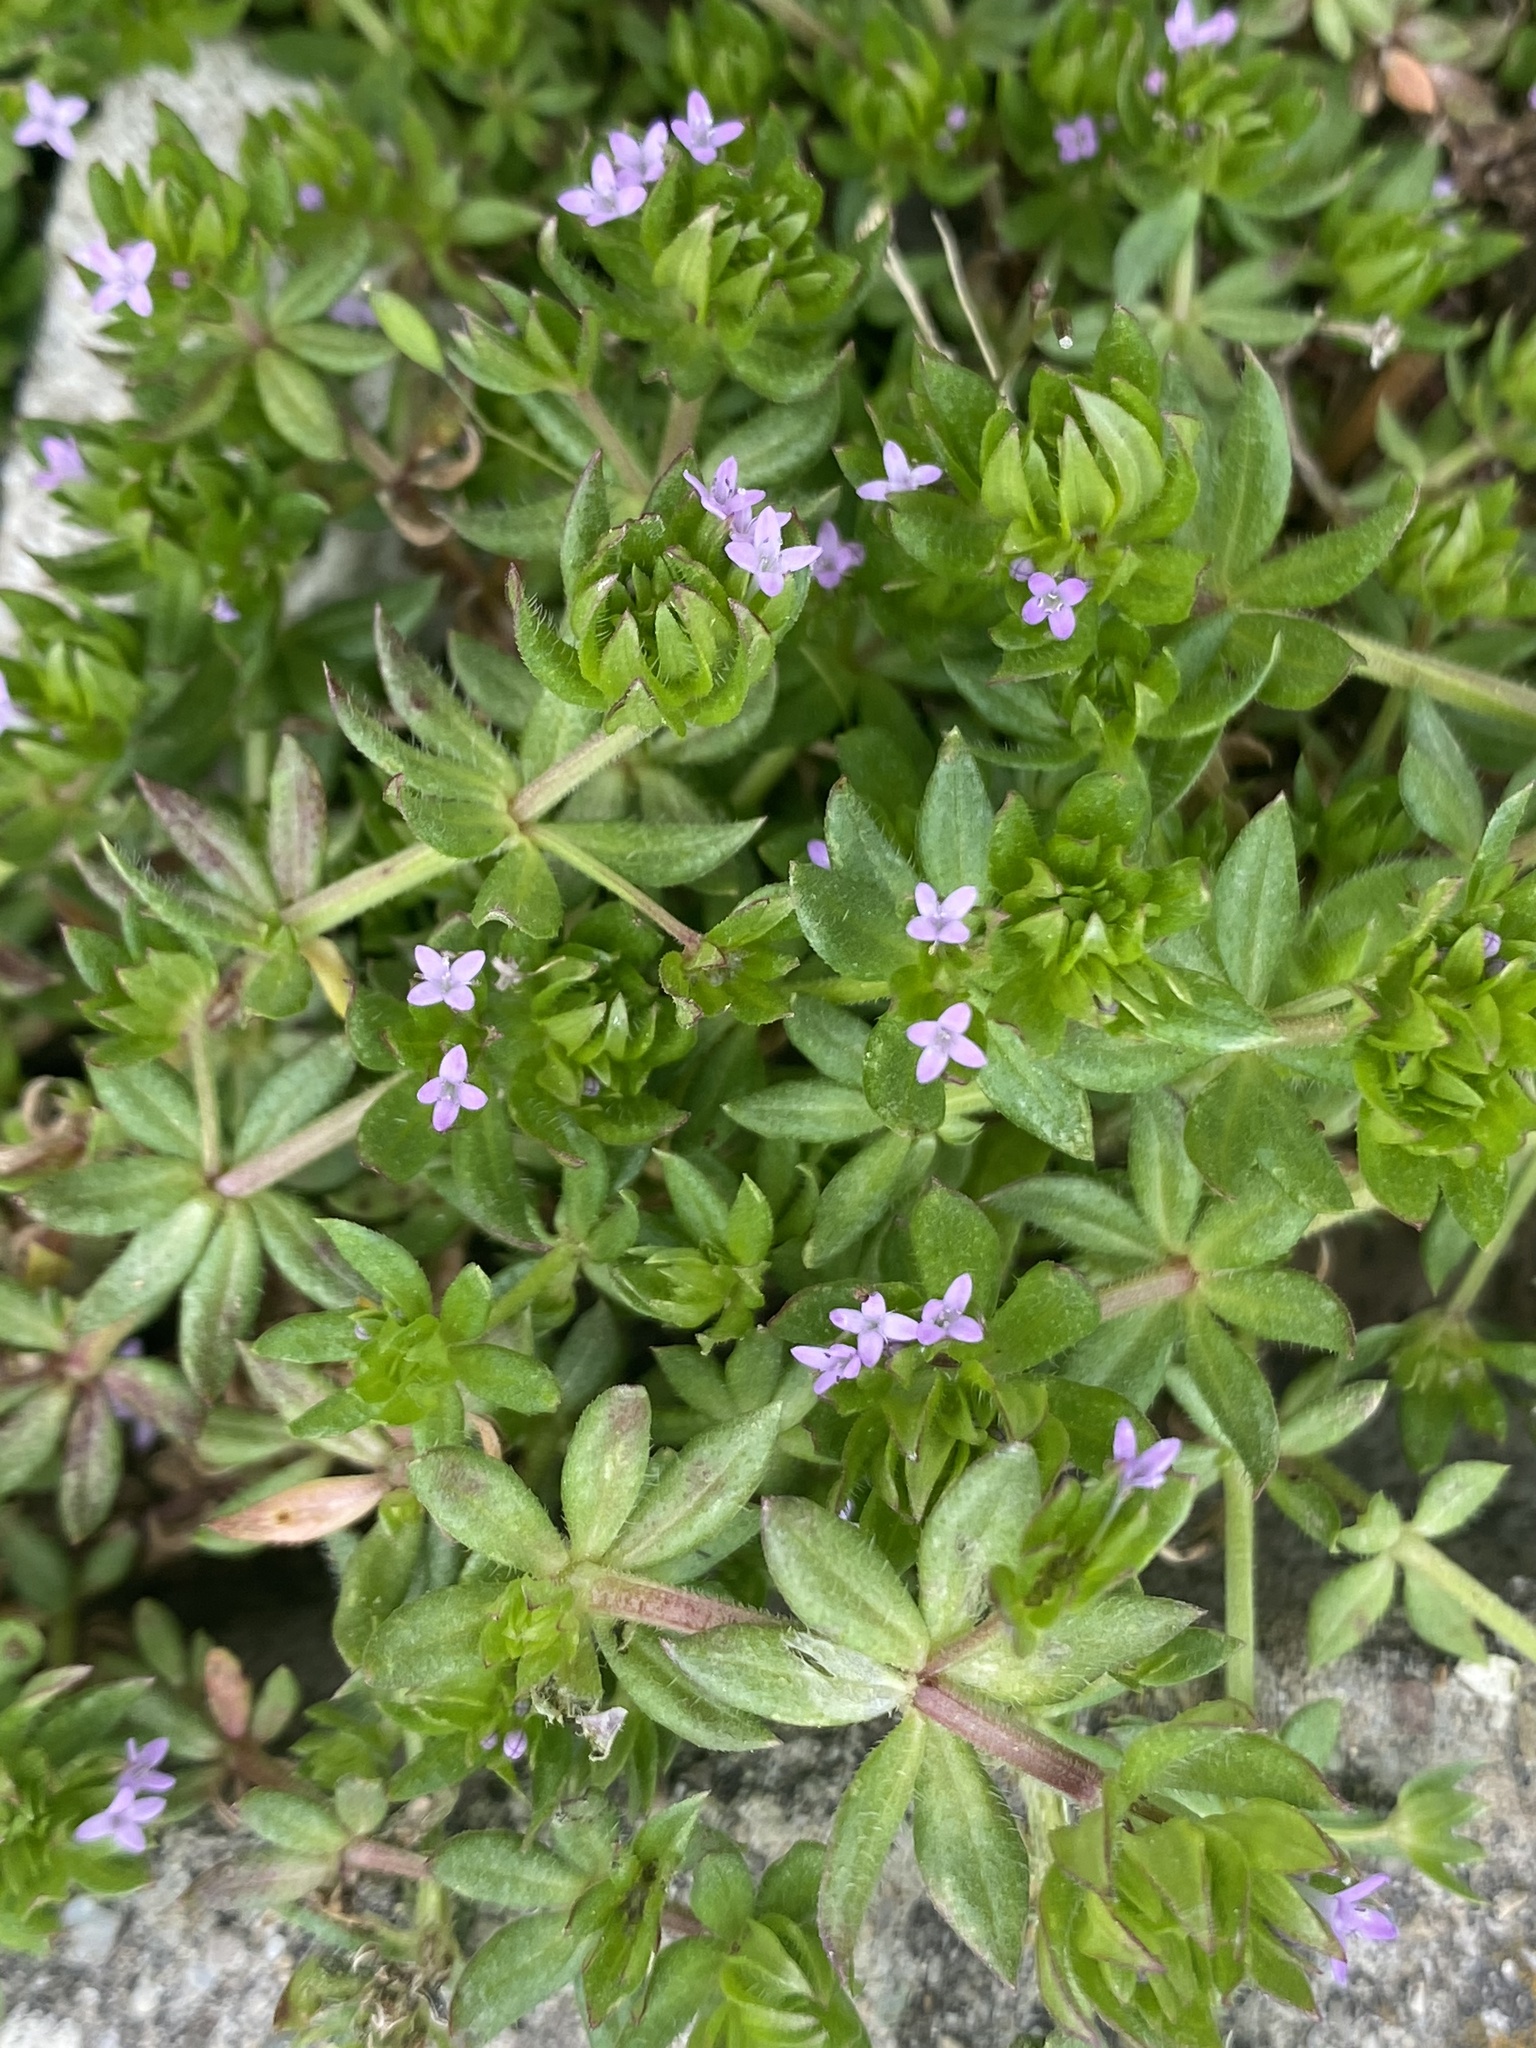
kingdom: Plantae
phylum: Tracheophyta
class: Magnoliopsida
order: Gentianales
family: Rubiaceae
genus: Sherardia
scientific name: Sherardia arvensis
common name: Field madder
